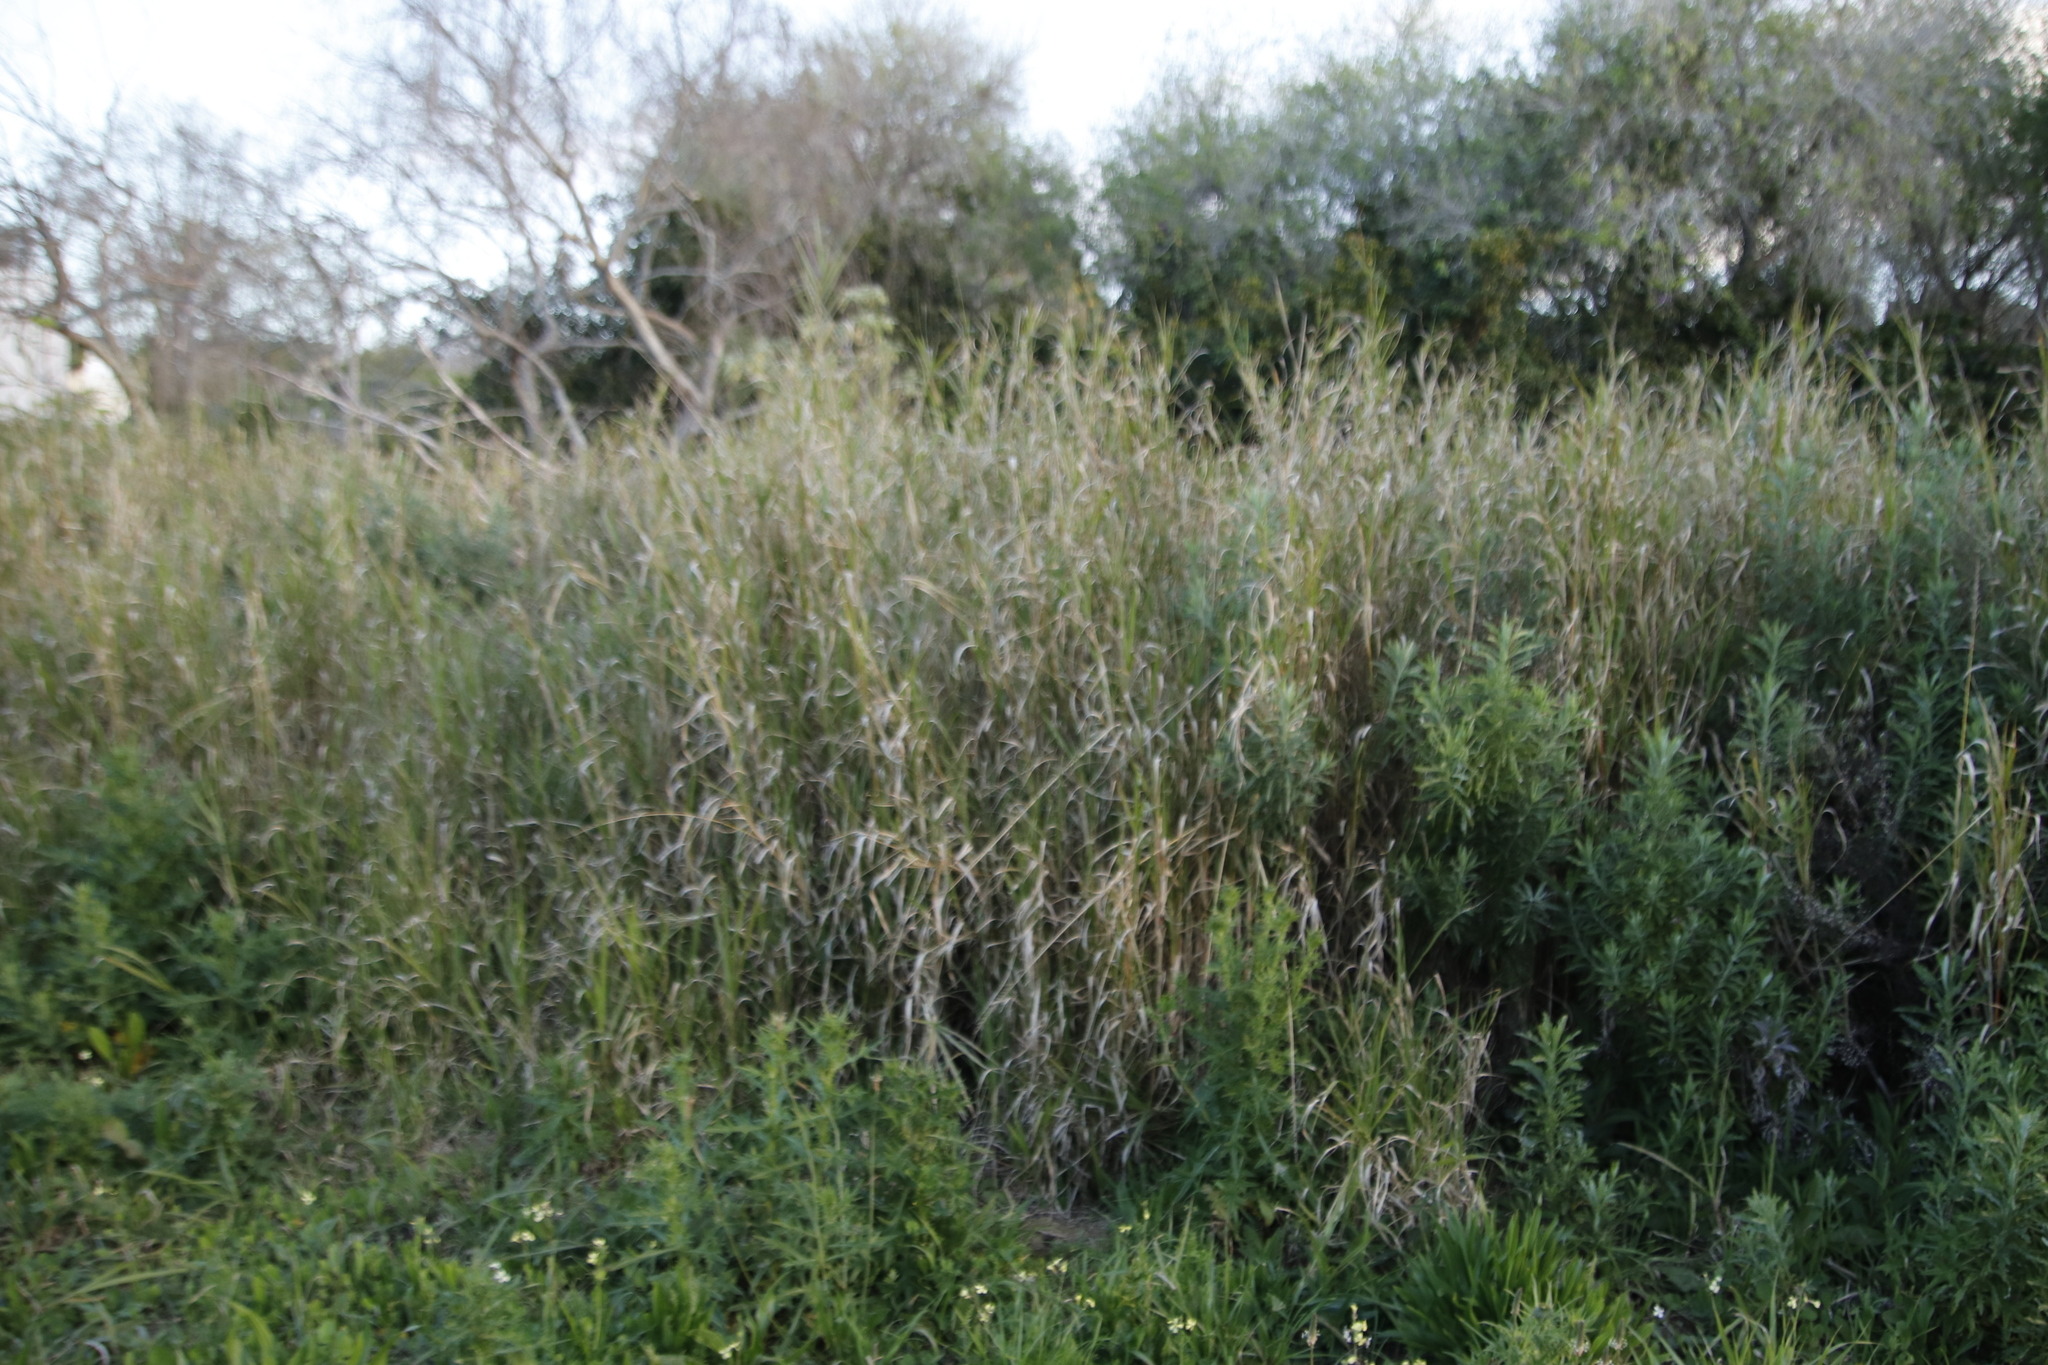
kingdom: Plantae
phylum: Tracheophyta
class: Liliopsida
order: Poales
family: Poaceae
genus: Echinochloa
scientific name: Echinochloa pyramidalis
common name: Antelope grass
